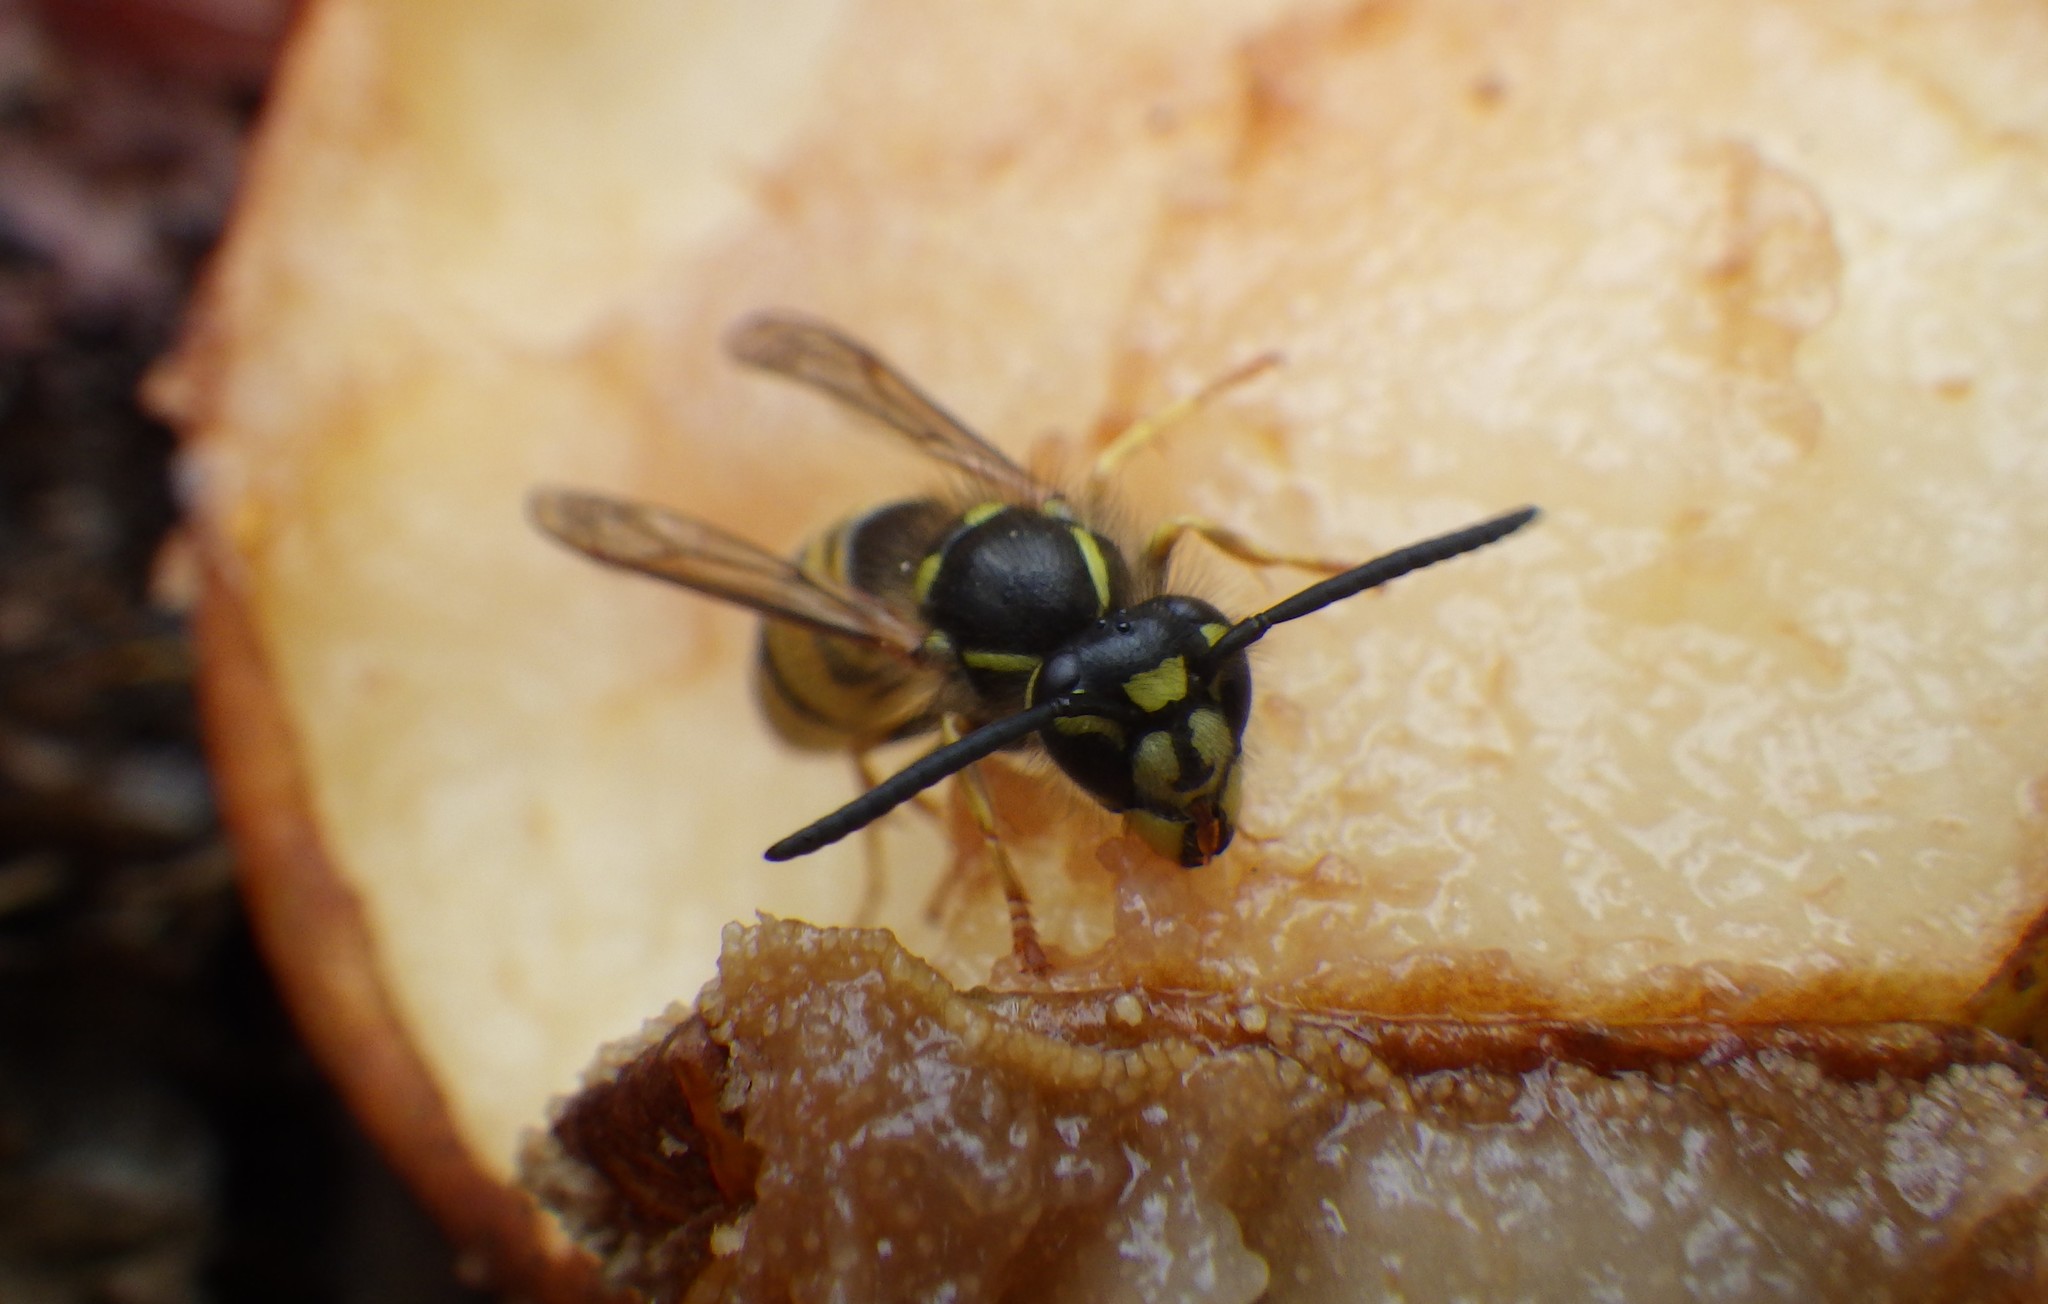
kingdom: Animalia
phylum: Arthropoda
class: Insecta
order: Hymenoptera
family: Vespidae
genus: Vespula
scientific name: Vespula vulgaris
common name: Common wasp
